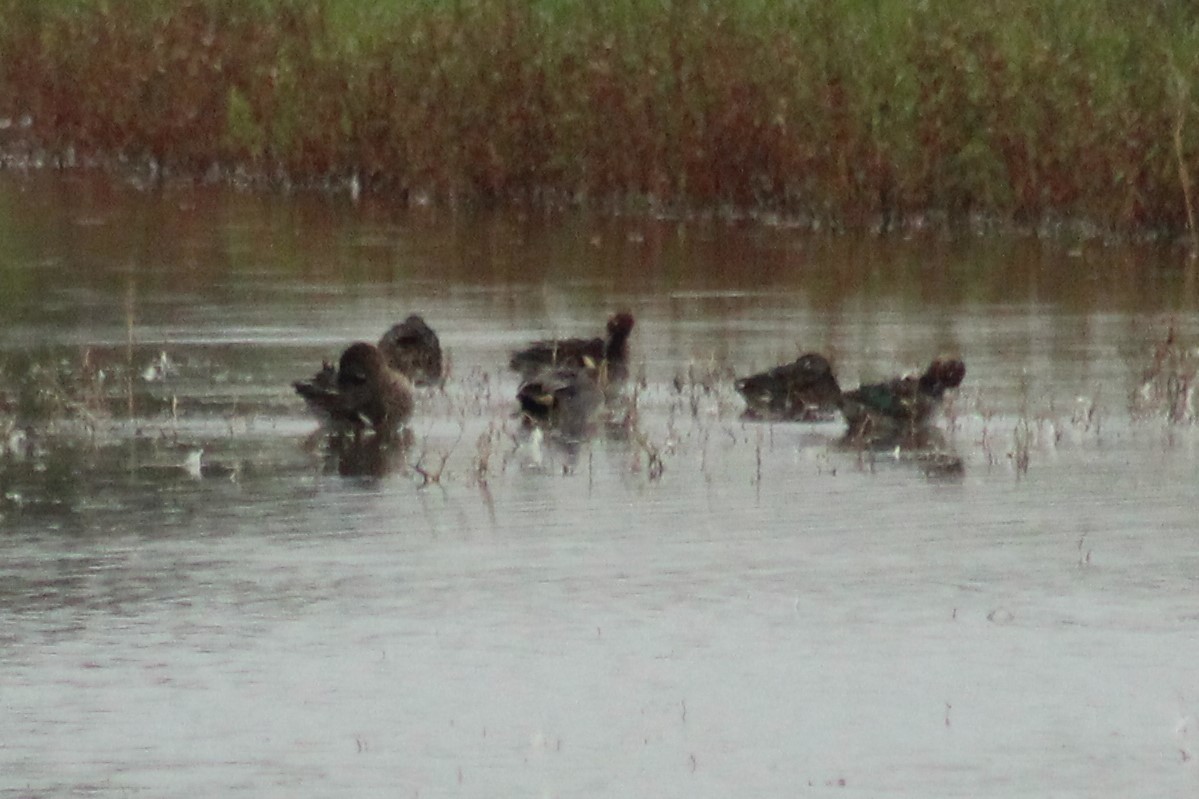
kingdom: Animalia
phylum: Chordata
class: Aves
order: Anseriformes
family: Anatidae
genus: Anas
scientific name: Anas crecca
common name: Eurasian teal
